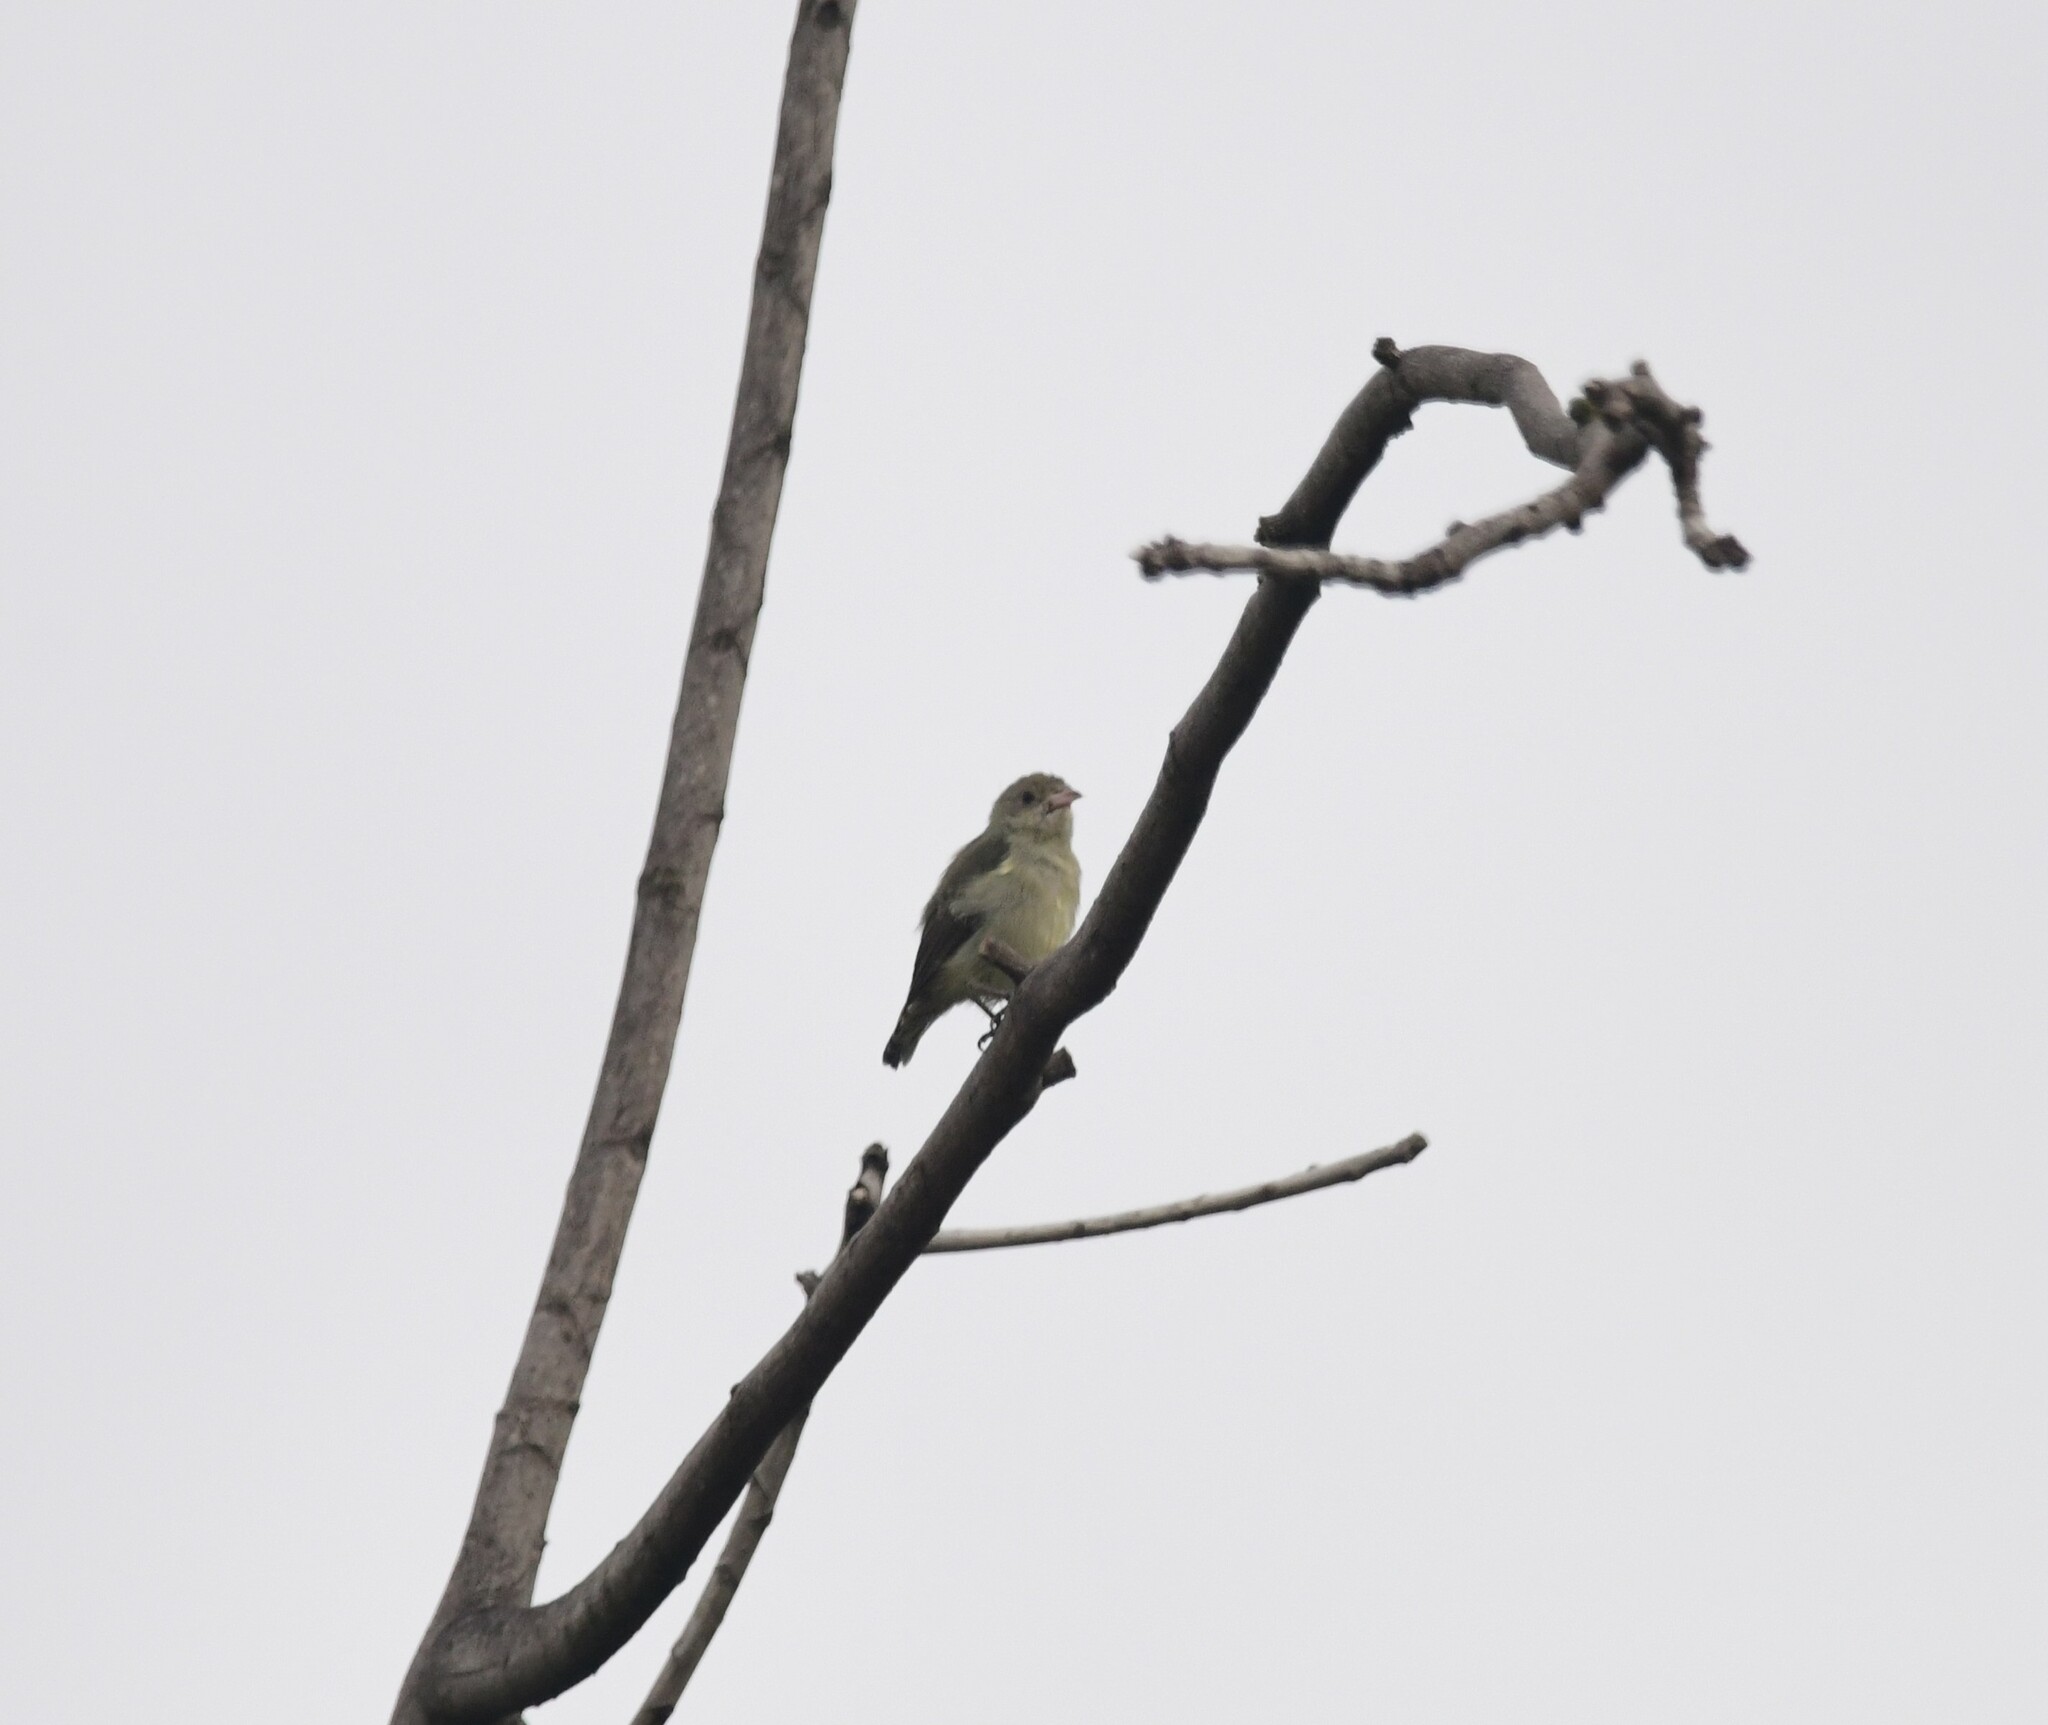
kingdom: Animalia
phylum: Chordata
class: Aves
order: Passeriformes
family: Dicaeidae
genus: Dicaeum
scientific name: Dicaeum erythrorhynchos
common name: Pale-billed flowerpecker
